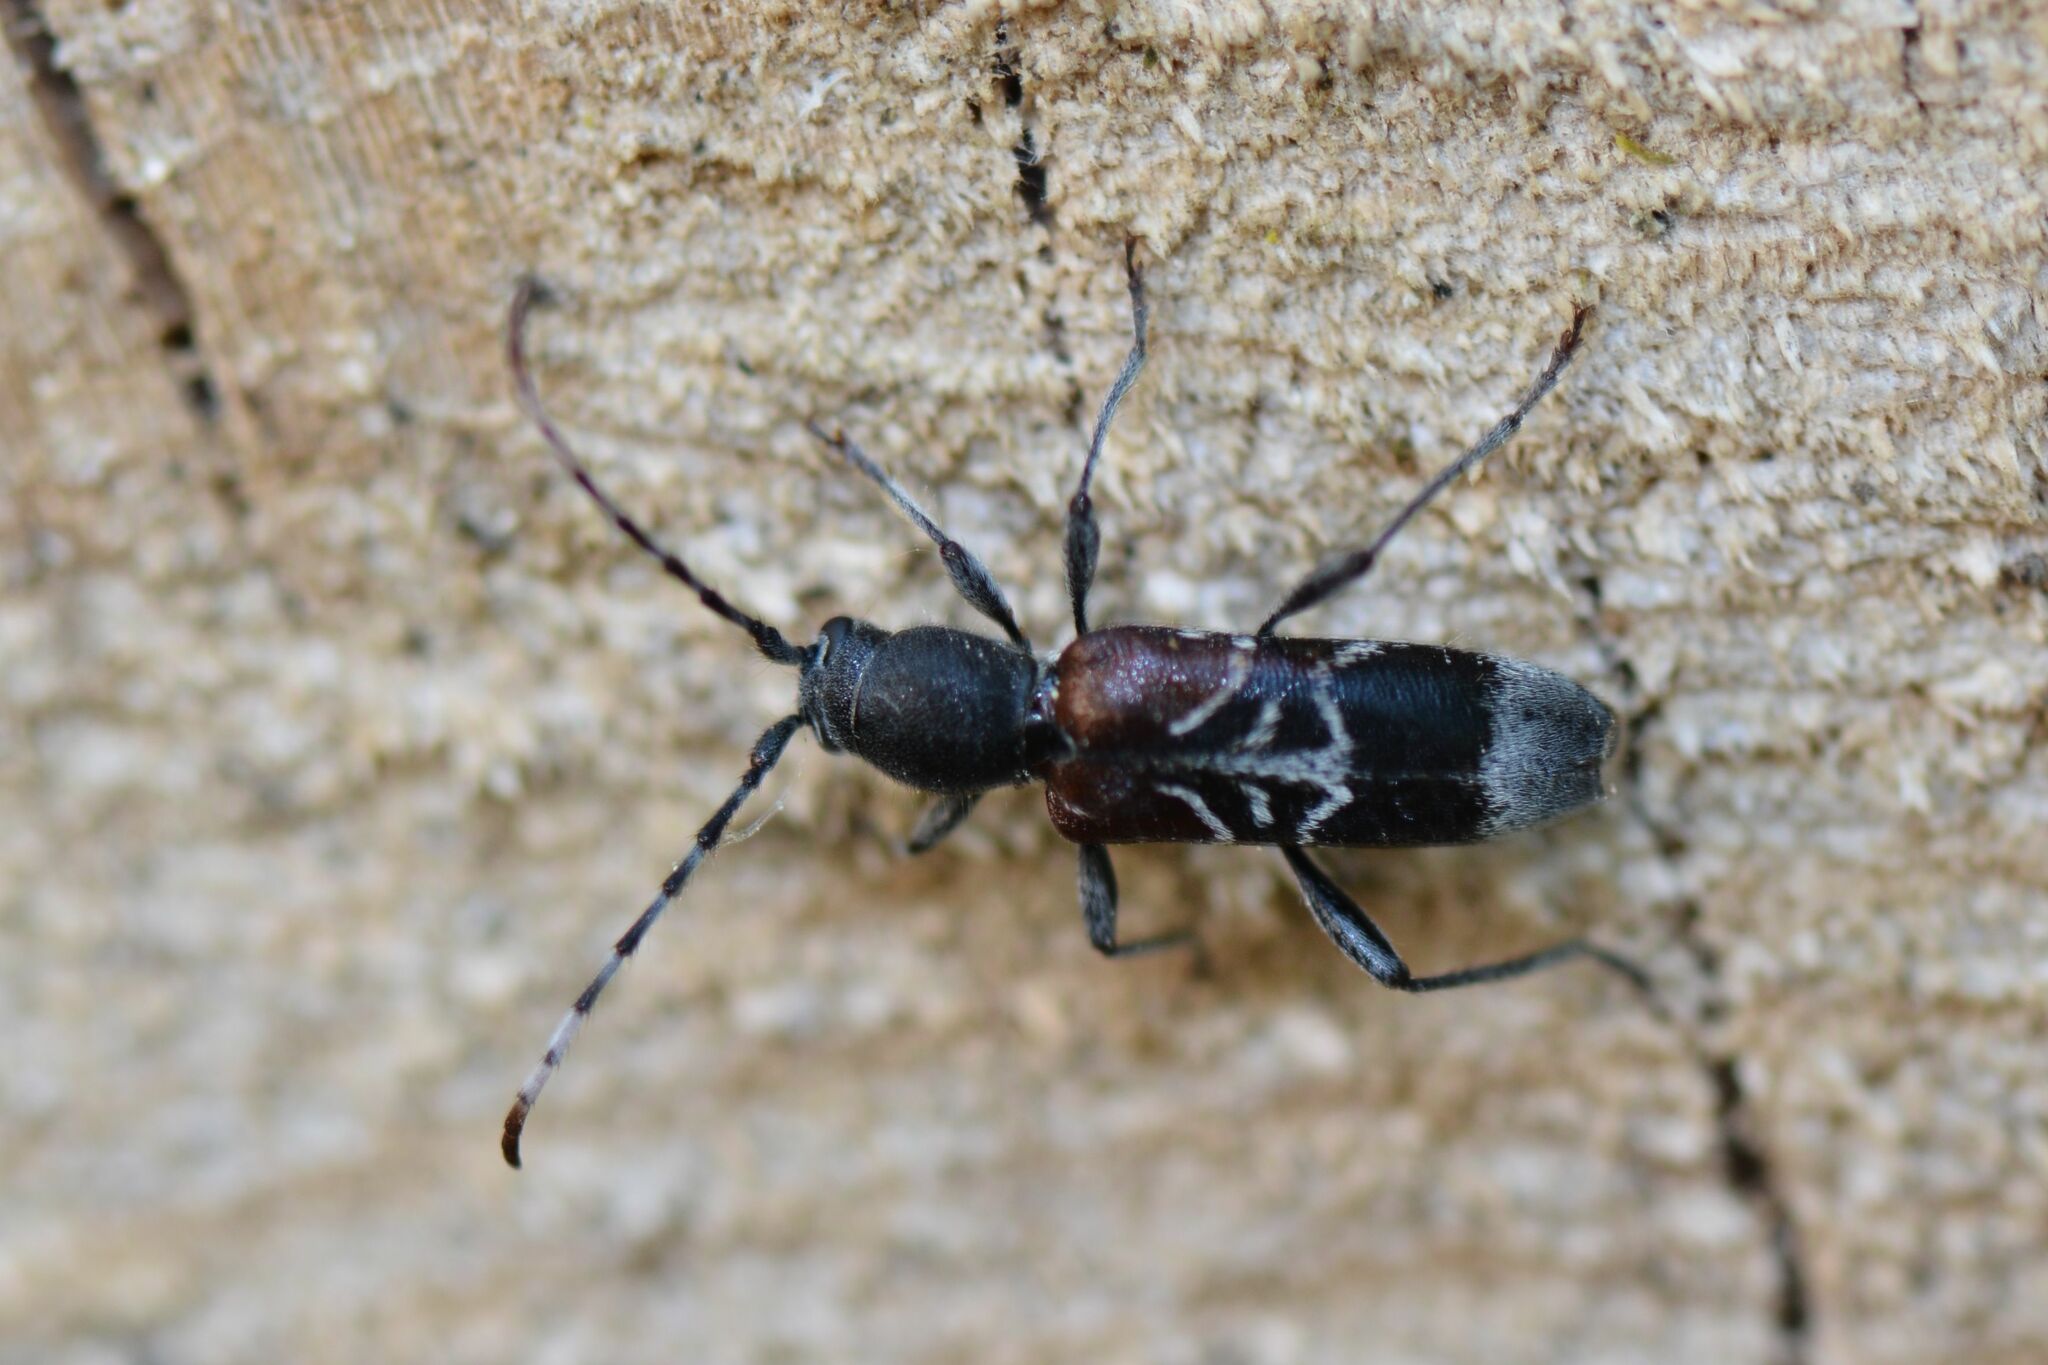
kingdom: Animalia
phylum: Arthropoda
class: Insecta
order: Coleoptera
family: Cerambycidae
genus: Anaglyptus
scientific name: Anaglyptus mysticus
